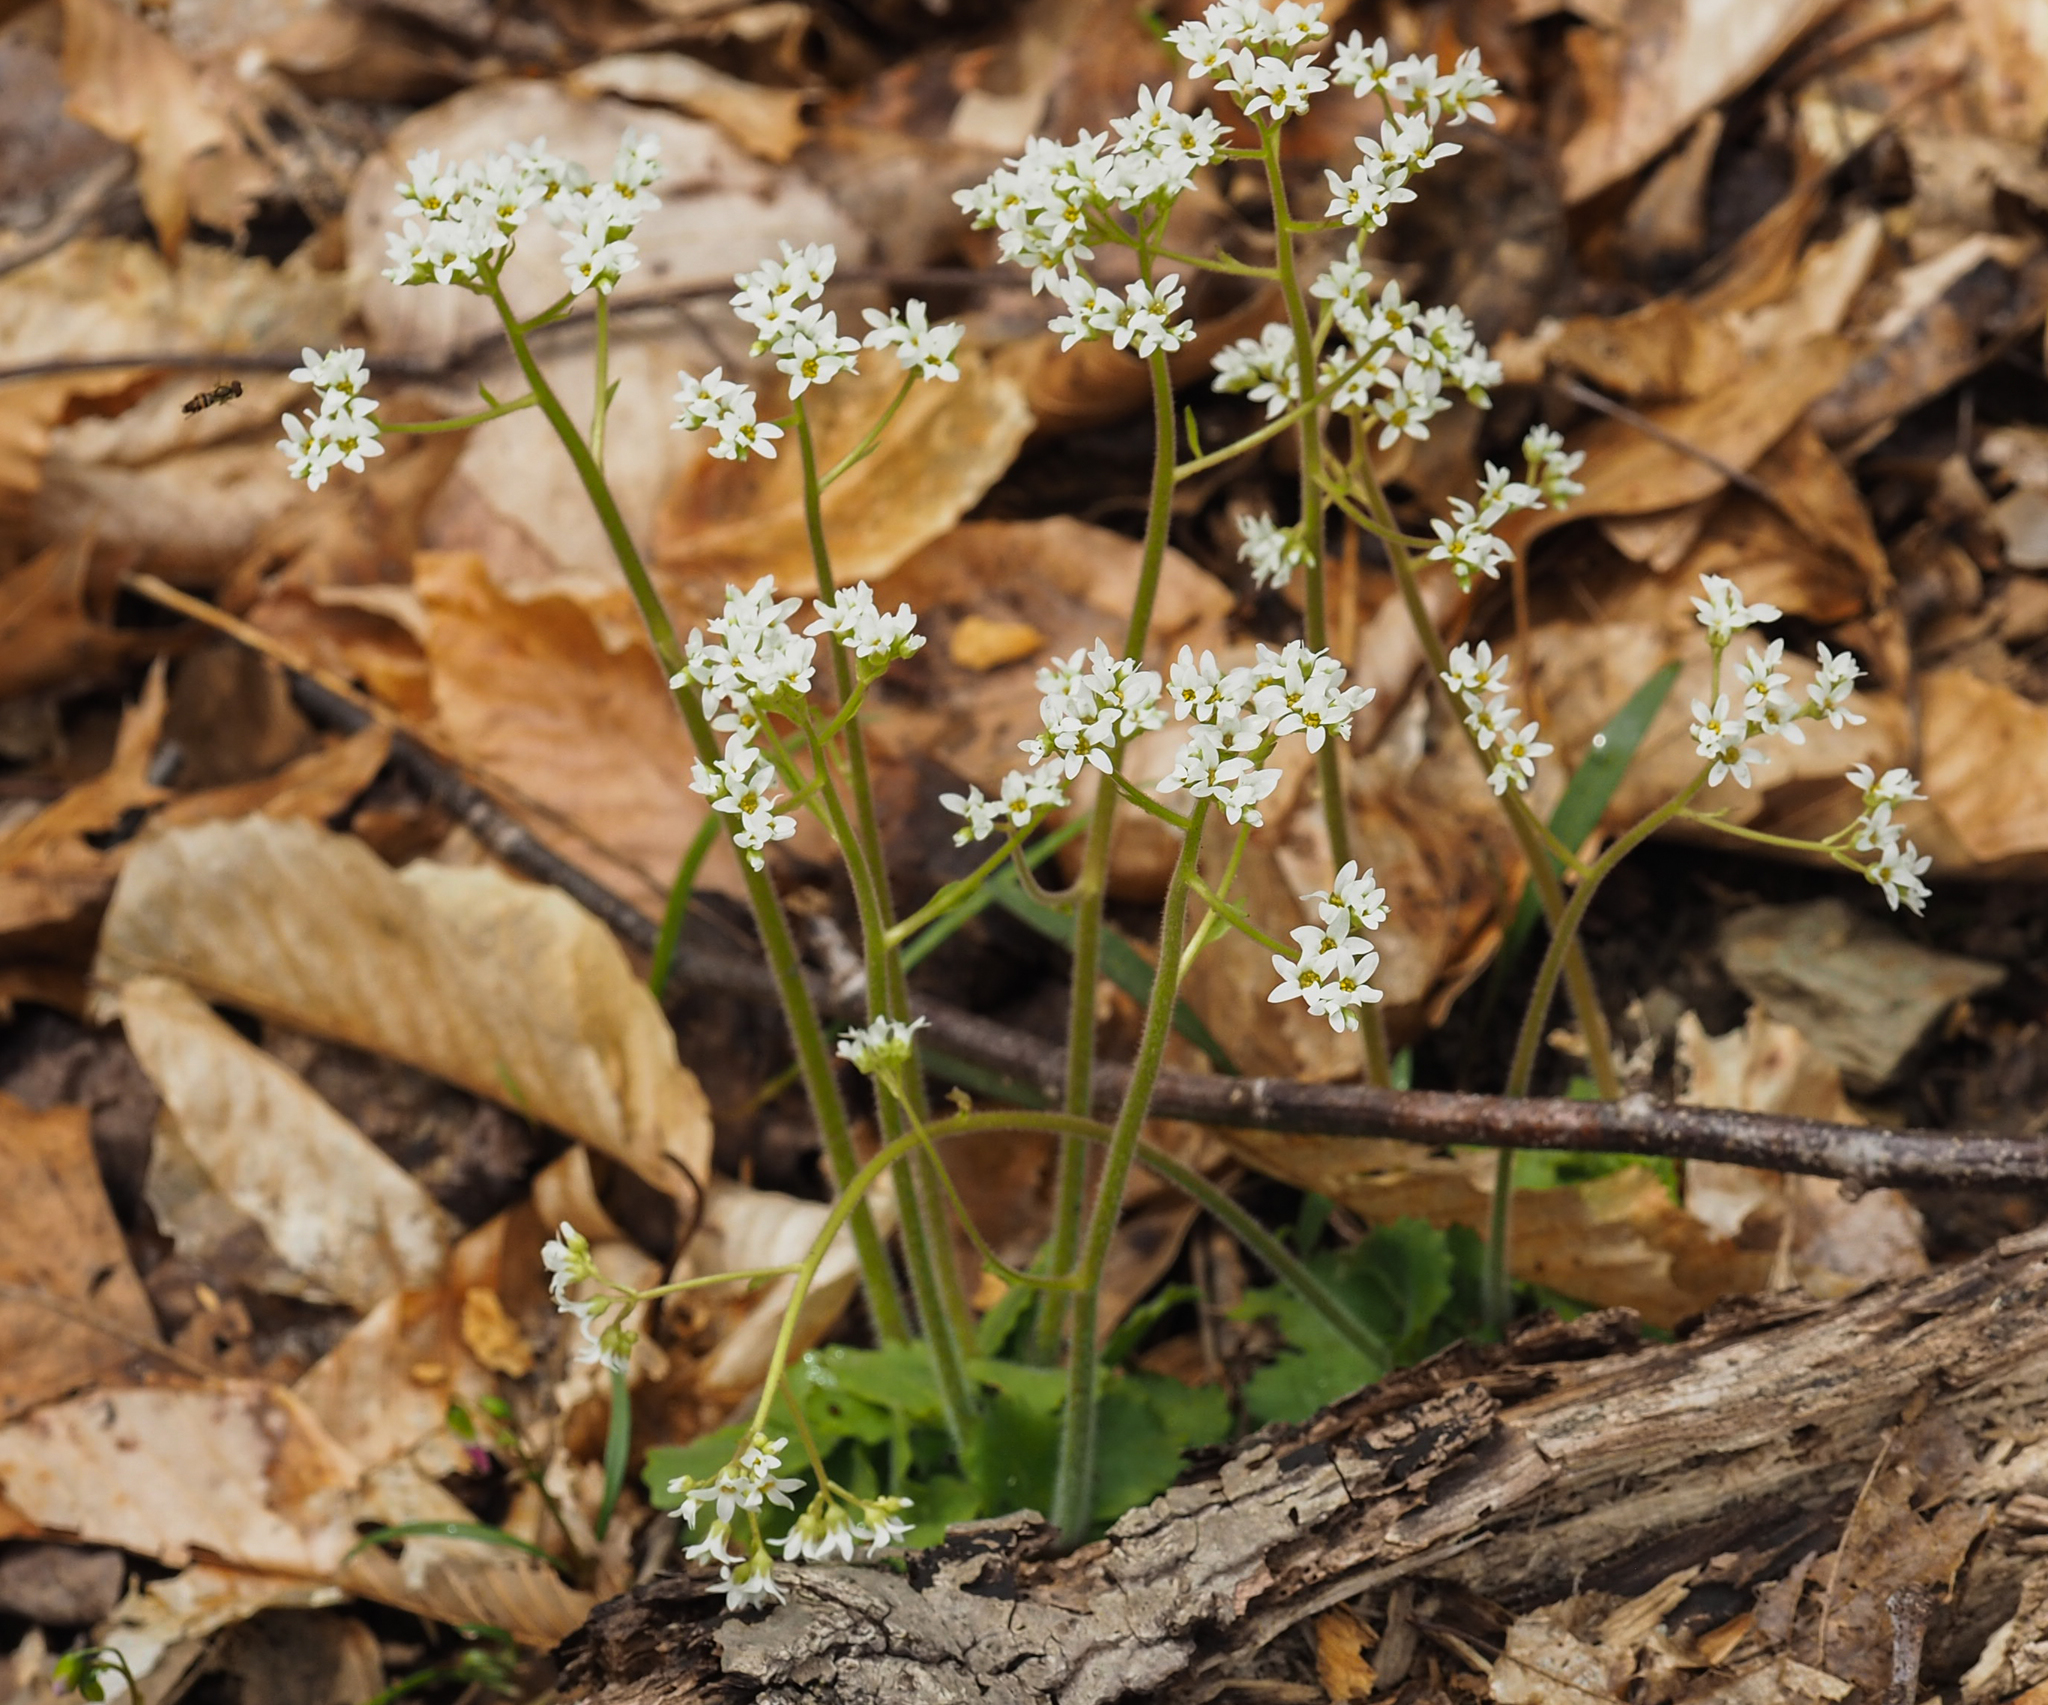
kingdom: Plantae
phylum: Tracheophyta
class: Magnoliopsida
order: Saxifragales
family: Saxifragaceae
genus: Micranthes
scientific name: Micranthes virginiensis
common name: Early saxifrage
